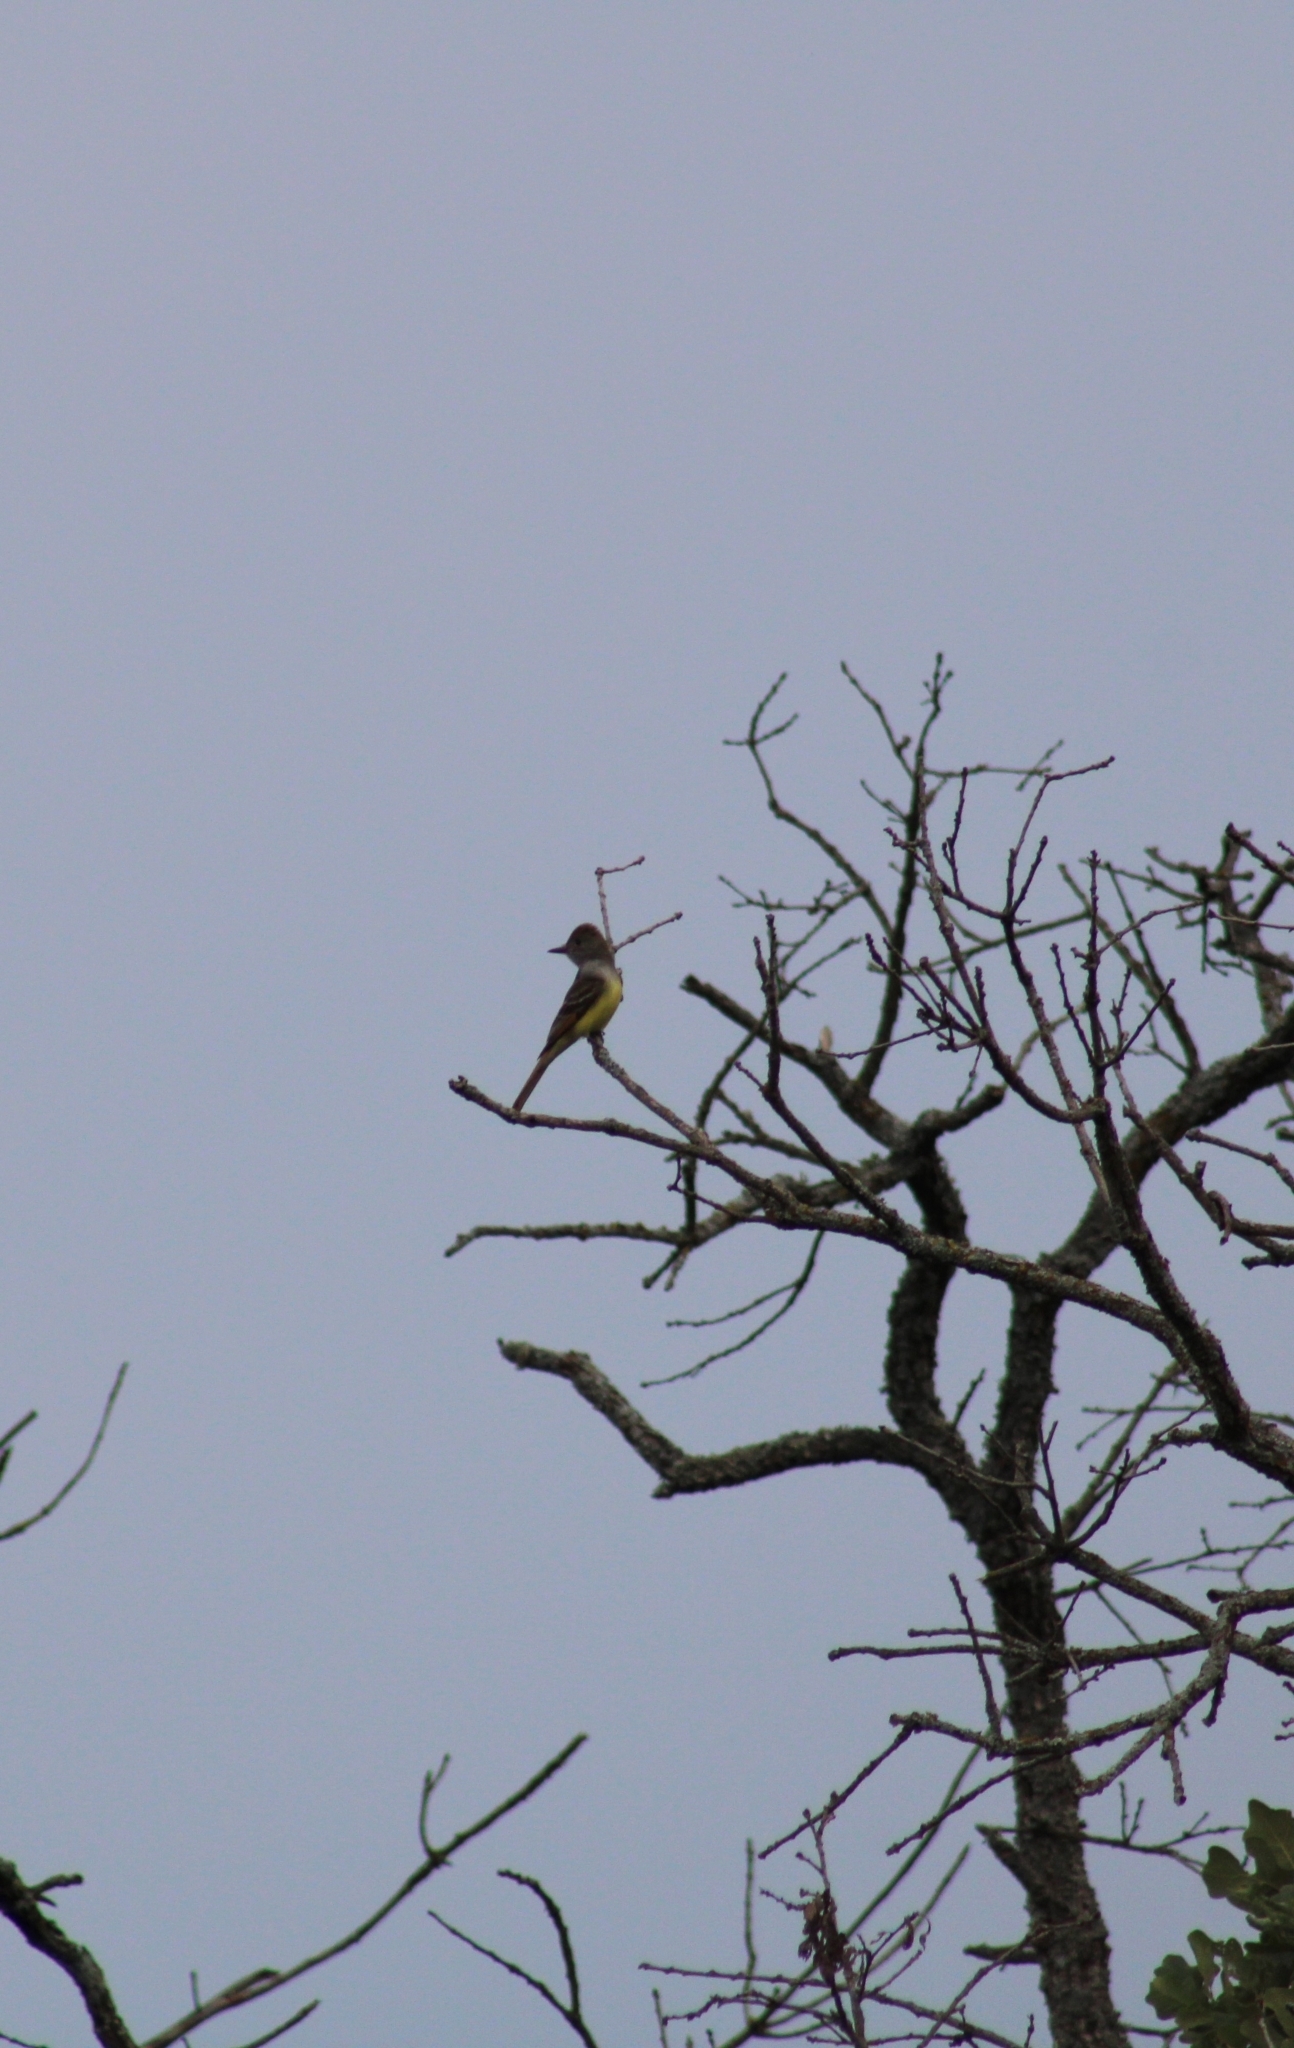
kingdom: Animalia
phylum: Chordata
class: Aves
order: Passeriformes
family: Tyrannidae
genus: Myiarchus
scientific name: Myiarchus crinitus
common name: Great crested flycatcher
